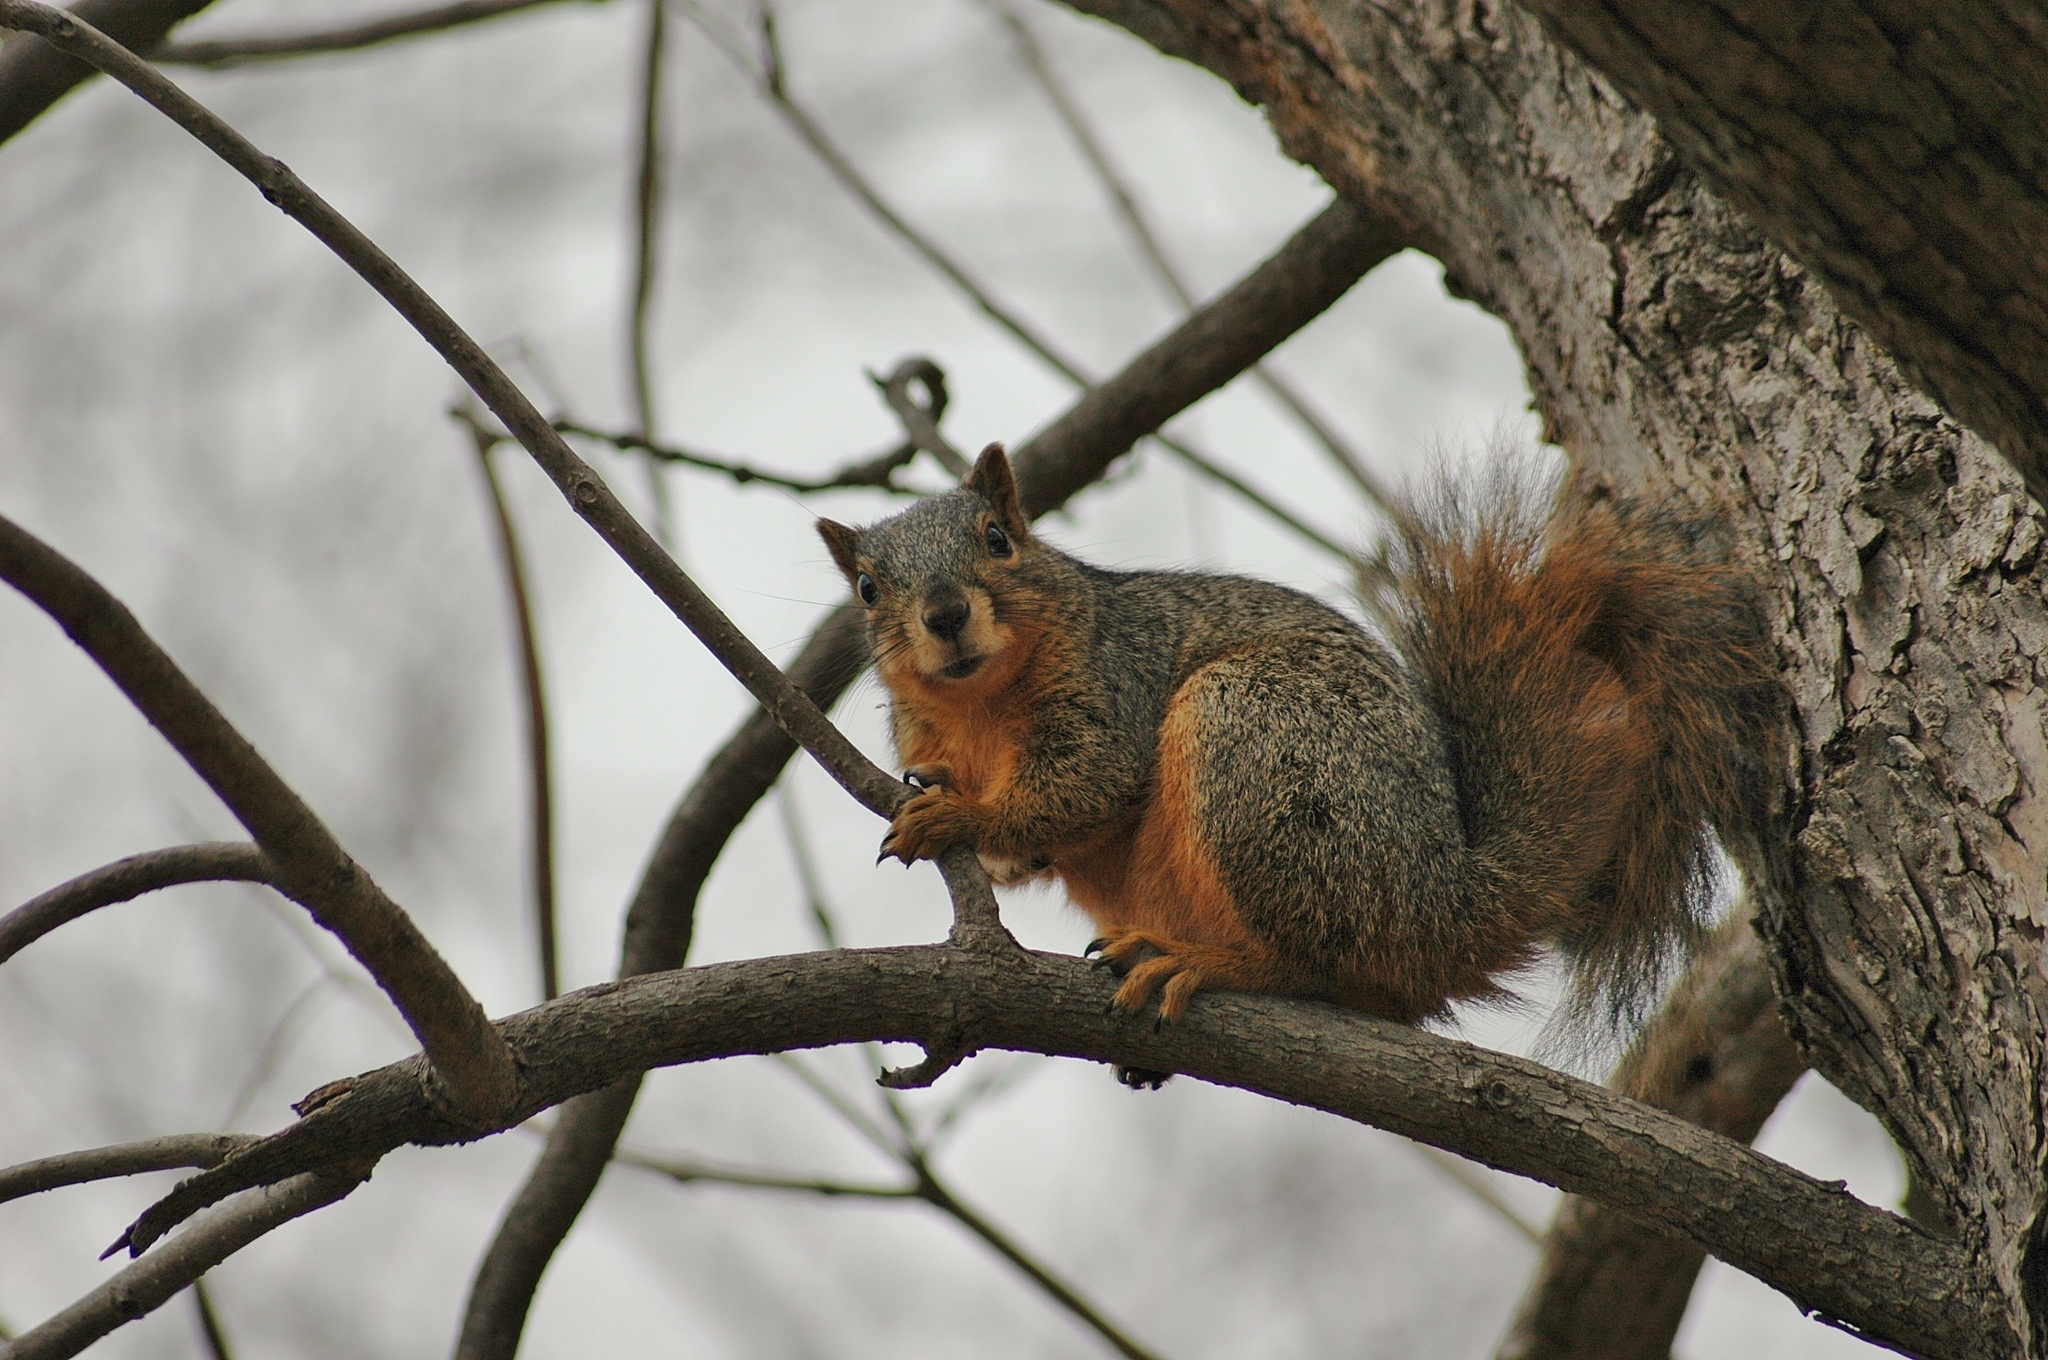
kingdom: Animalia
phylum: Chordata
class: Mammalia
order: Rodentia
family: Sciuridae
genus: Sciurus
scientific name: Sciurus niger
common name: Fox squirrel
